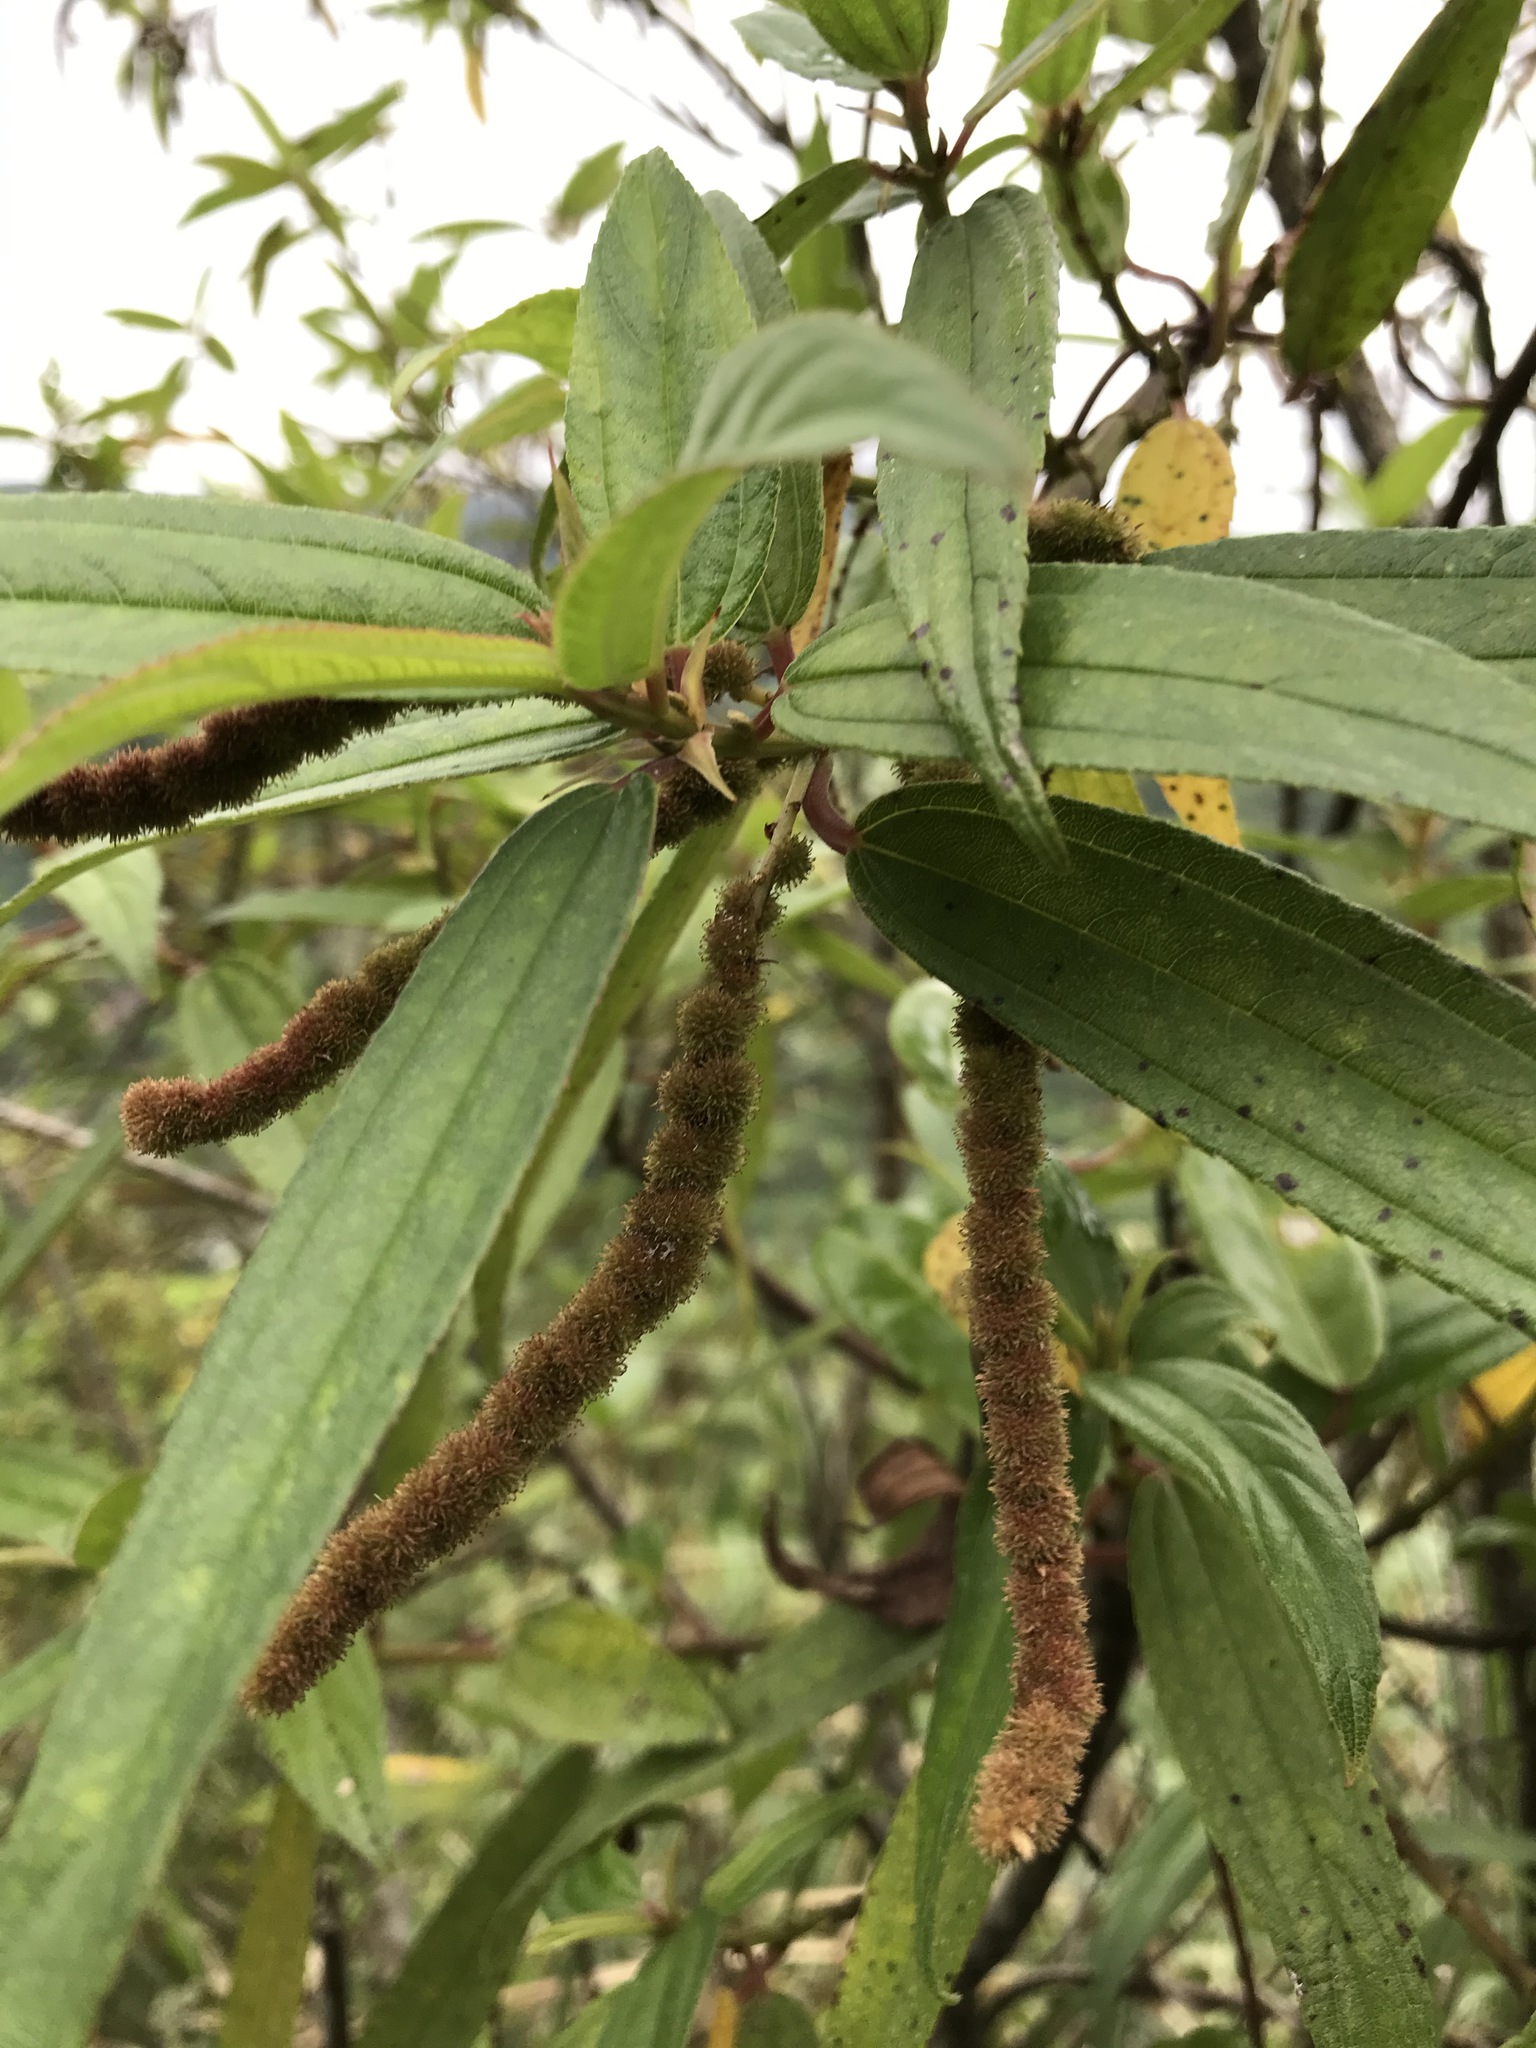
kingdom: Plantae
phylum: Tracheophyta
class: Magnoliopsida
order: Rosales
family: Urticaceae
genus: Boehmeria
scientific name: Boehmeria densiflora
